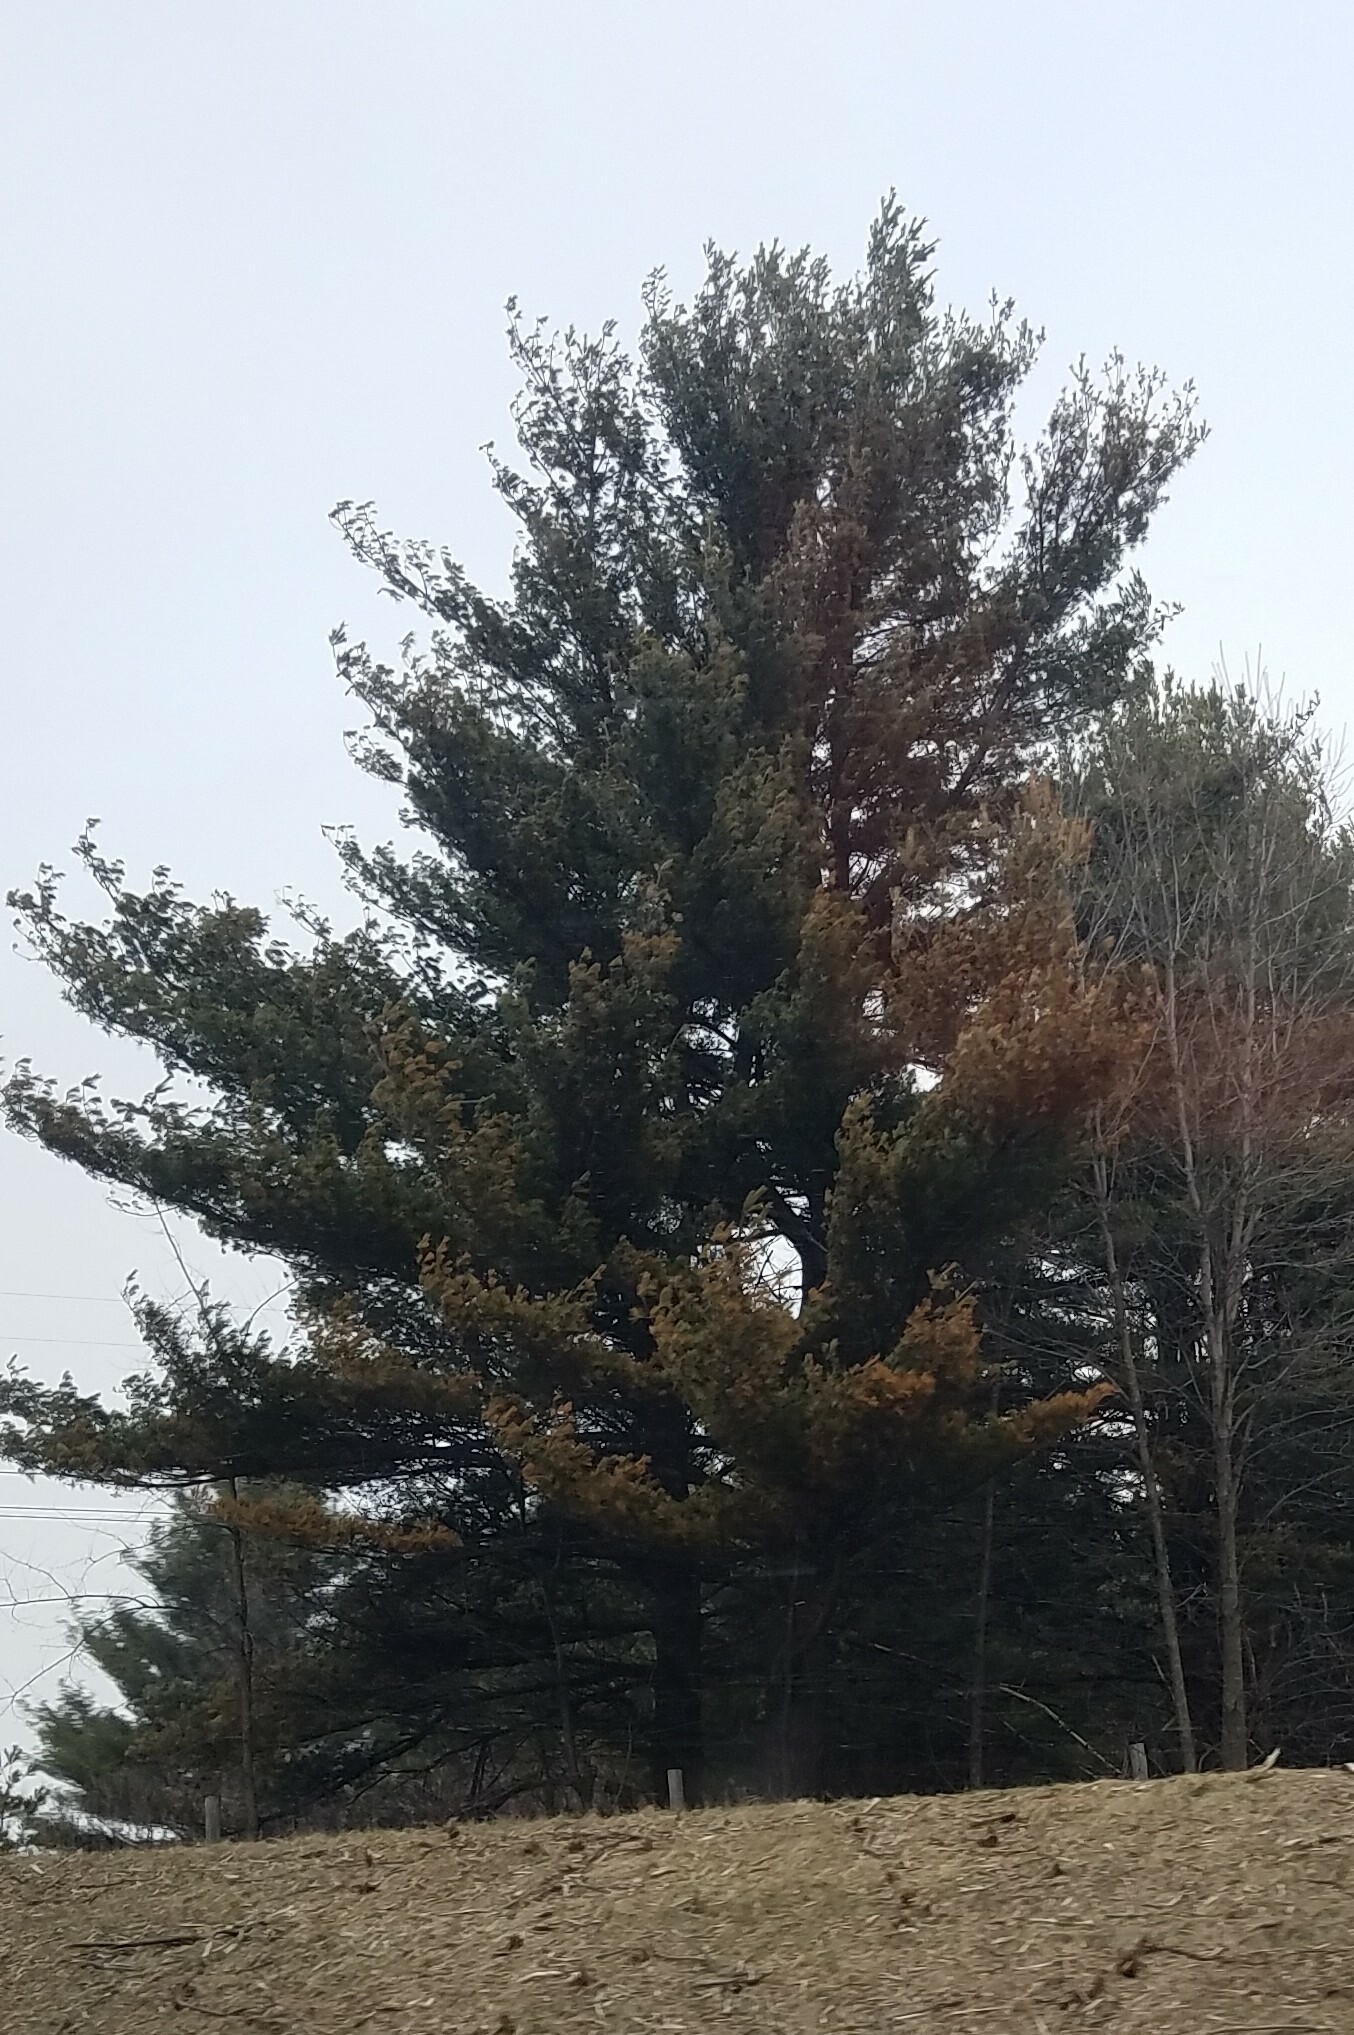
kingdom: Plantae
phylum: Tracheophyta
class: Pinopsida
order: Pinales
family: Pinaceae
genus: Pinus
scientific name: Pinus strobus
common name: Weymouth pine
